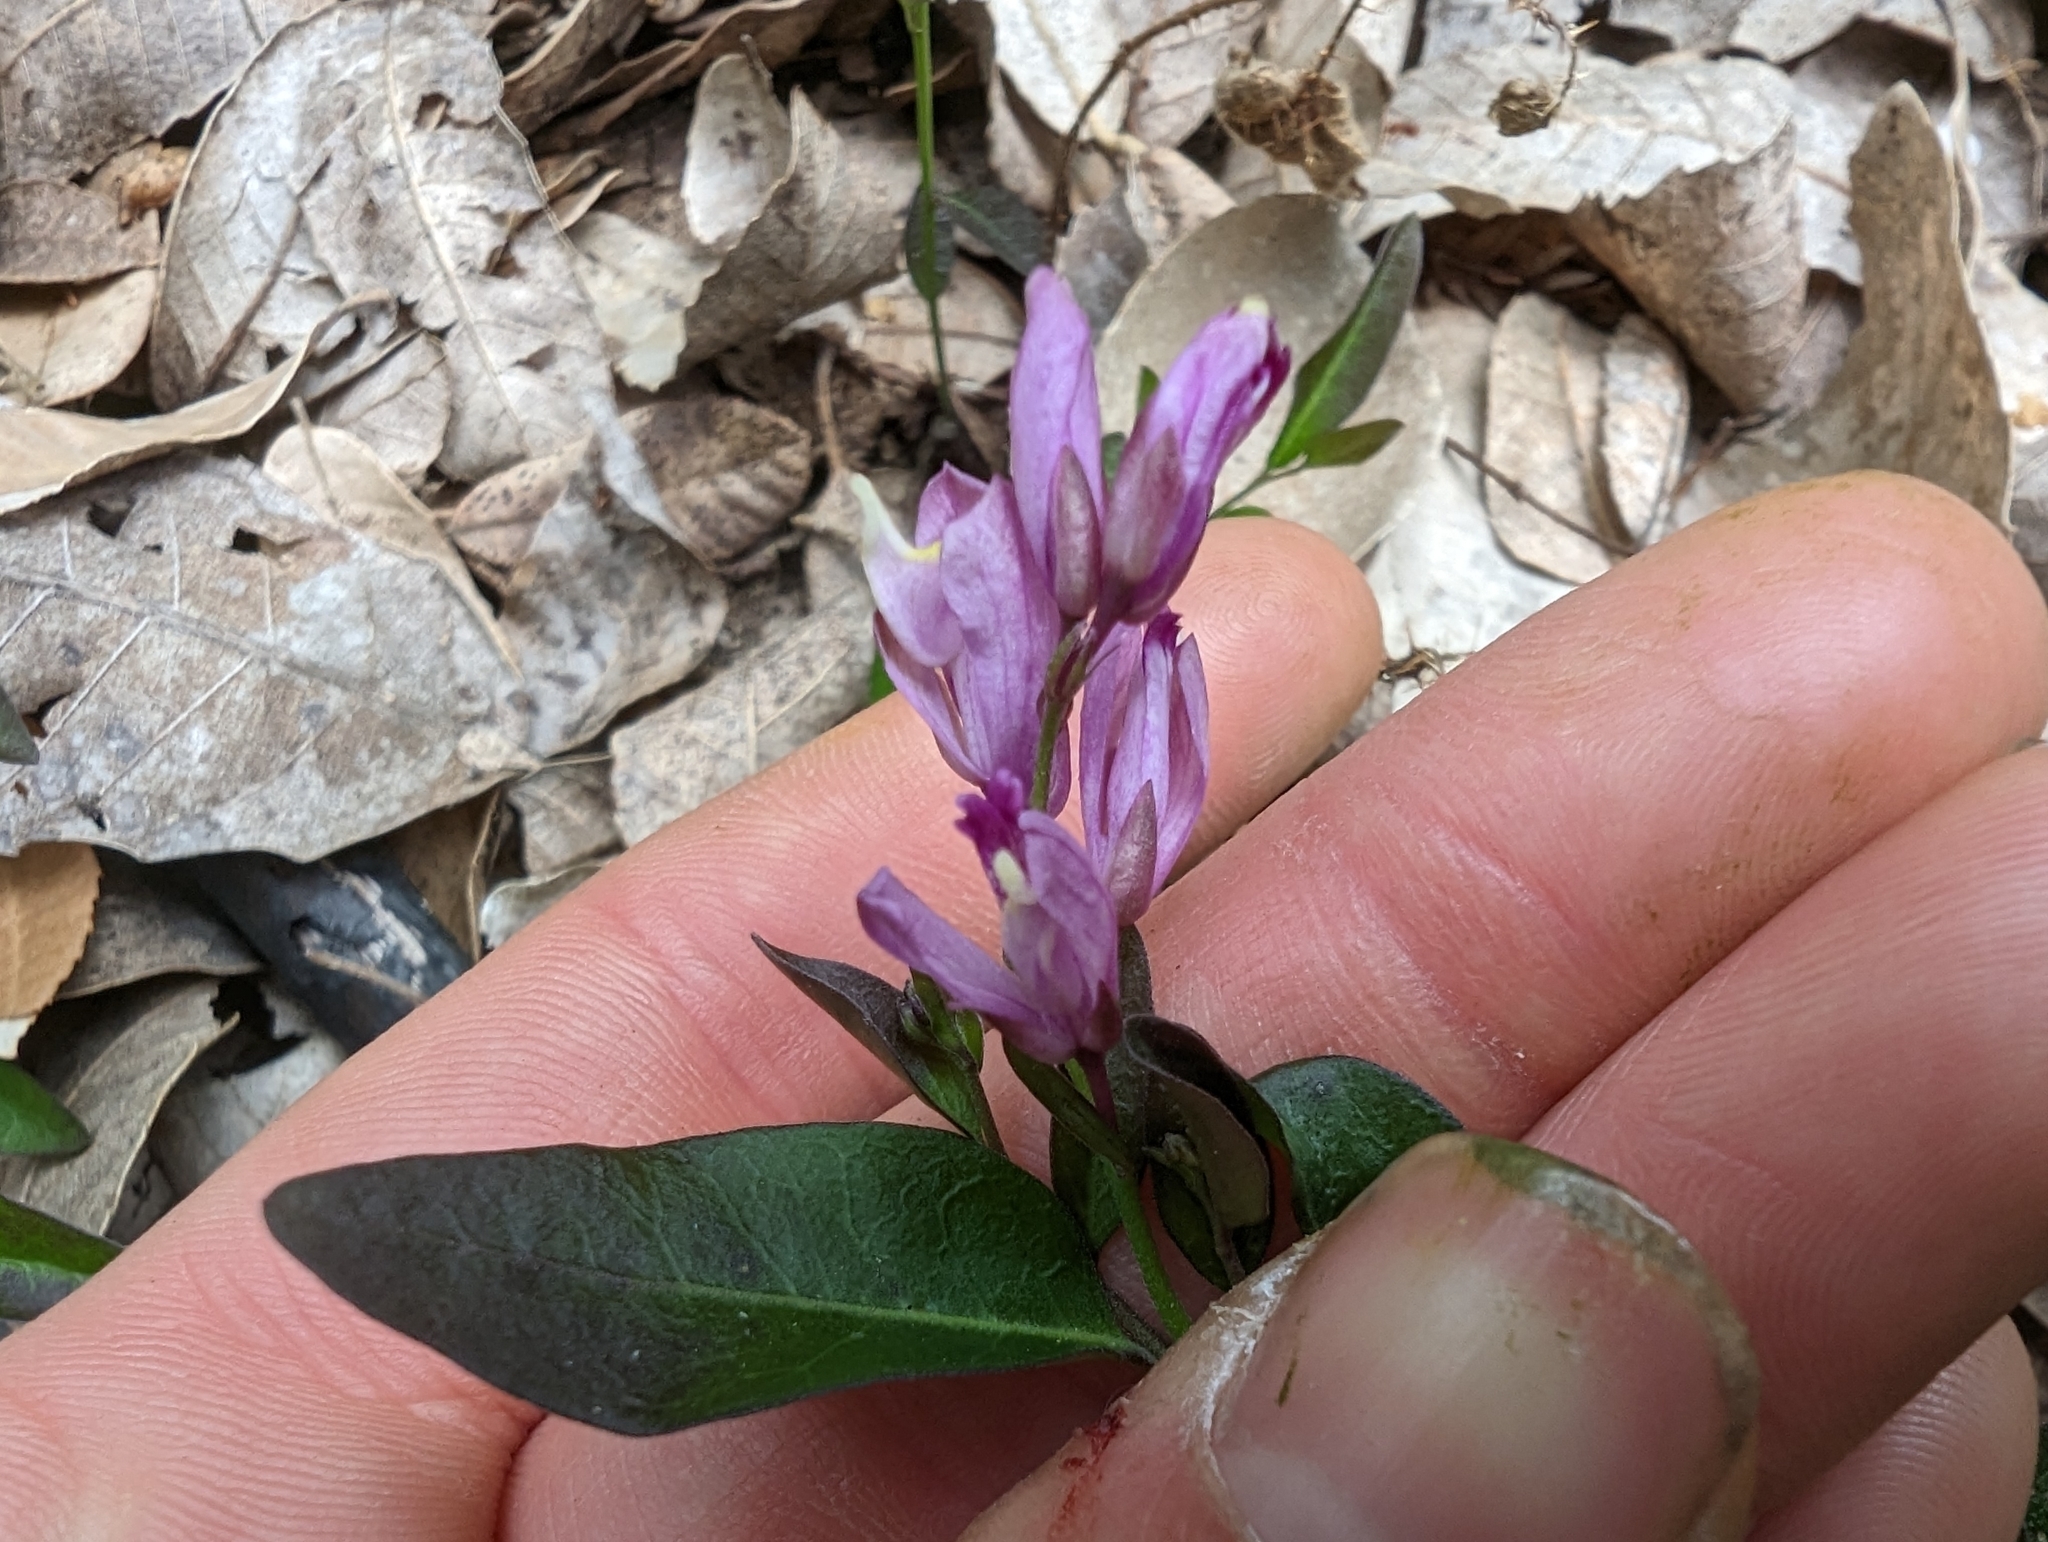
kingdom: Plantae
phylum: Tracheophyta
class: Magnoliopsida
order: Fabales
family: Polygalaceae
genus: Rhinotropis
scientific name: Rhinotropis californica
